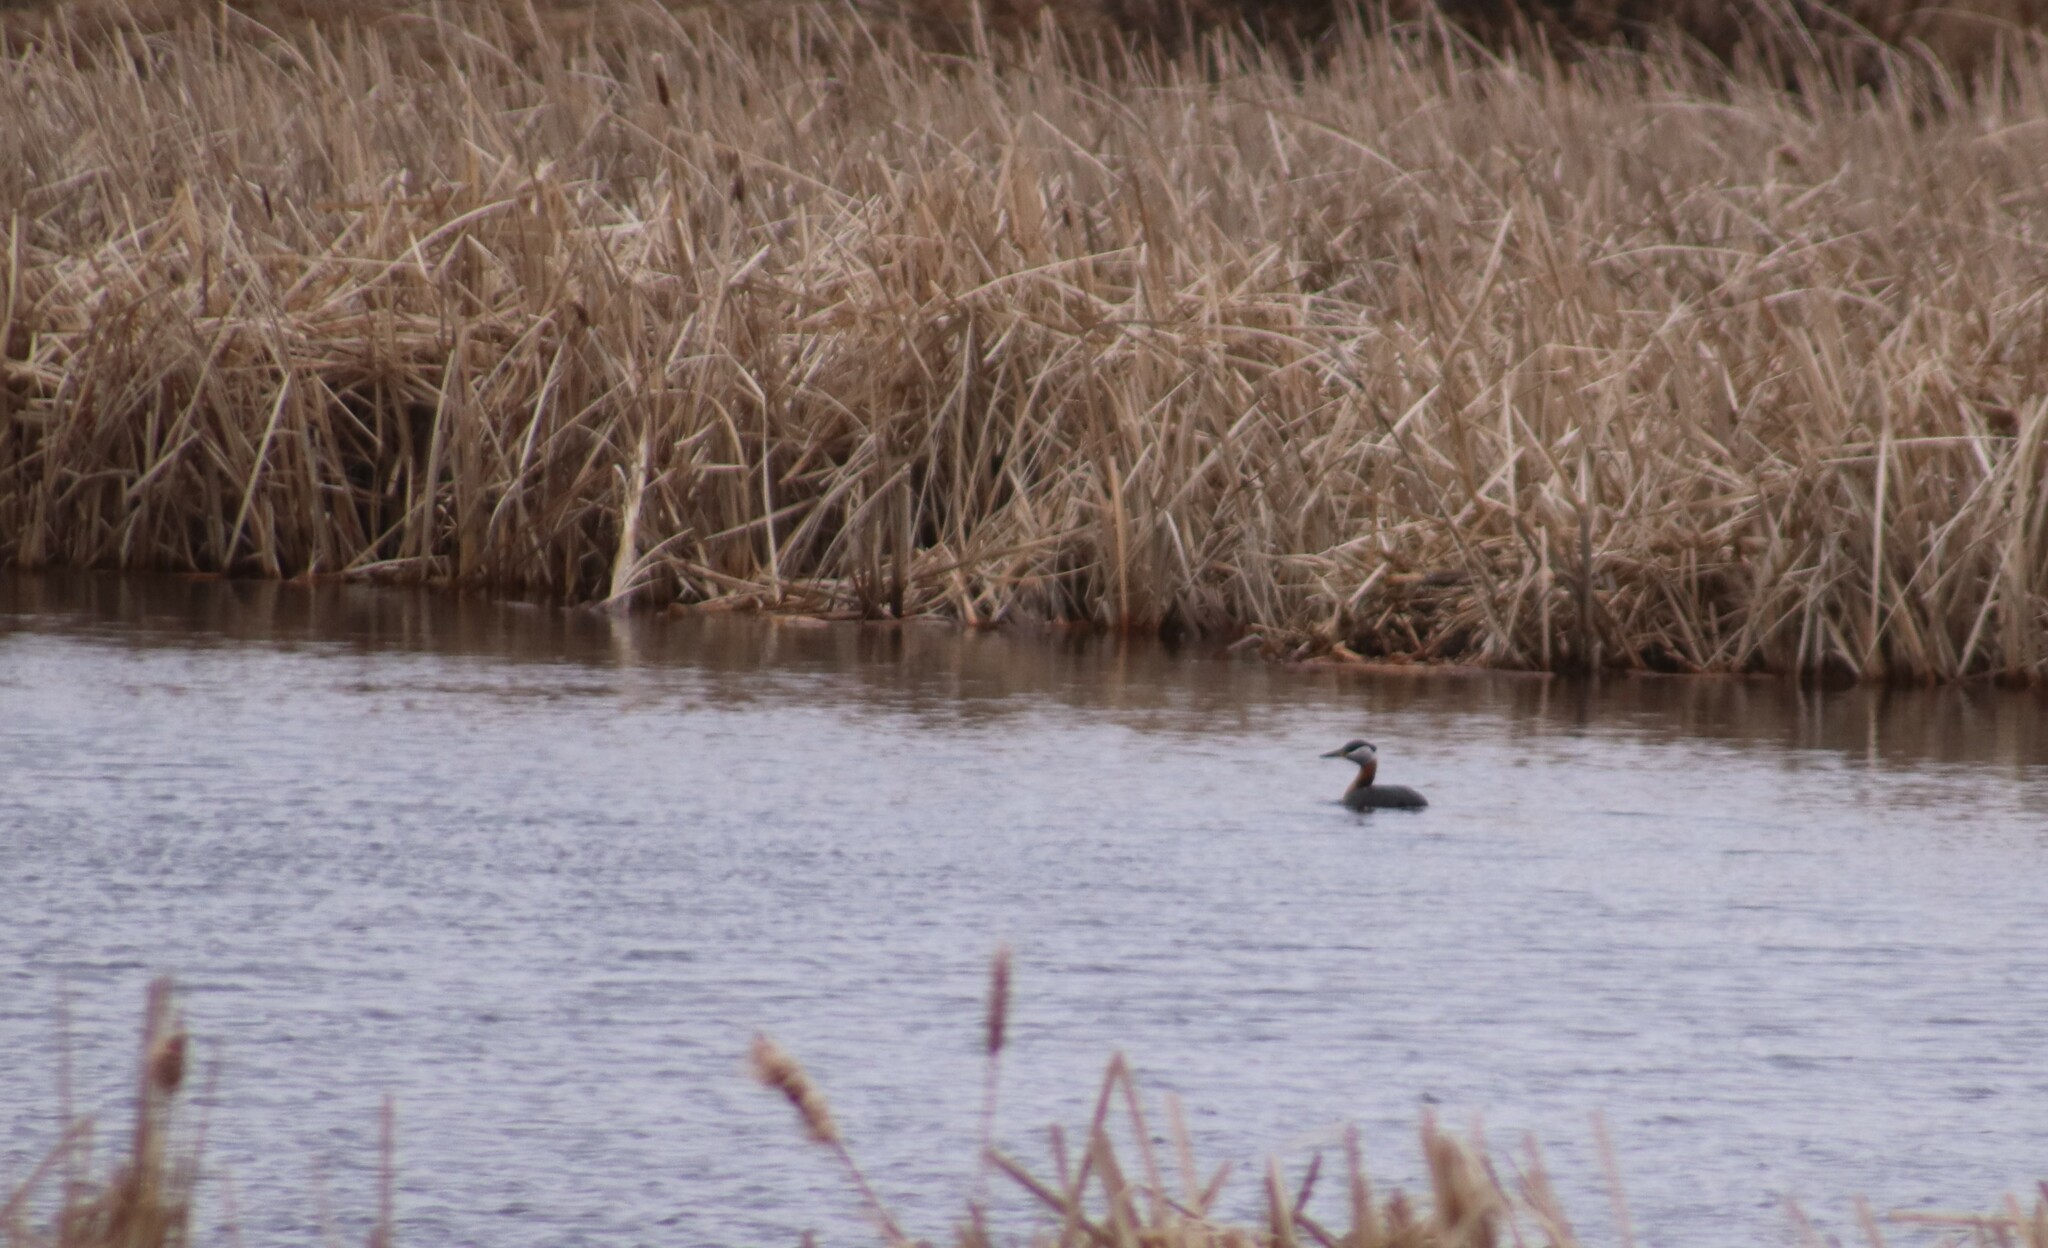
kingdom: Animalia
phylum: Chordata
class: Aves
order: Podicipediformes
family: Podicipedidae
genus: Podiceps
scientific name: Podiceps grisegena
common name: Red-necked grebe
